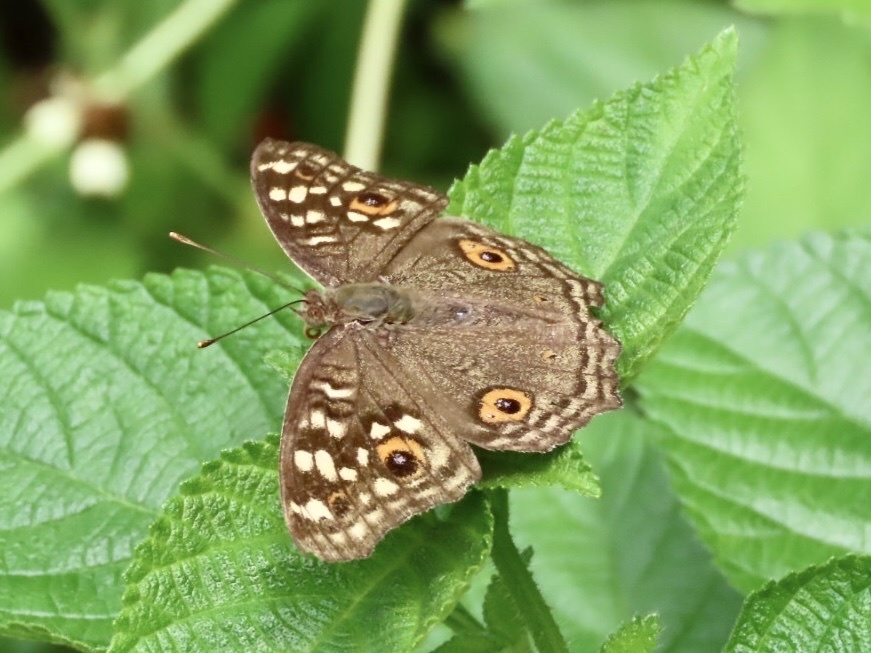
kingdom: Animalia
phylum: Arthropoda
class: Insecta
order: Lepidoptera
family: Nymphalidae
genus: Junonia
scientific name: Junonia lemonias
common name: Lemon pansy
